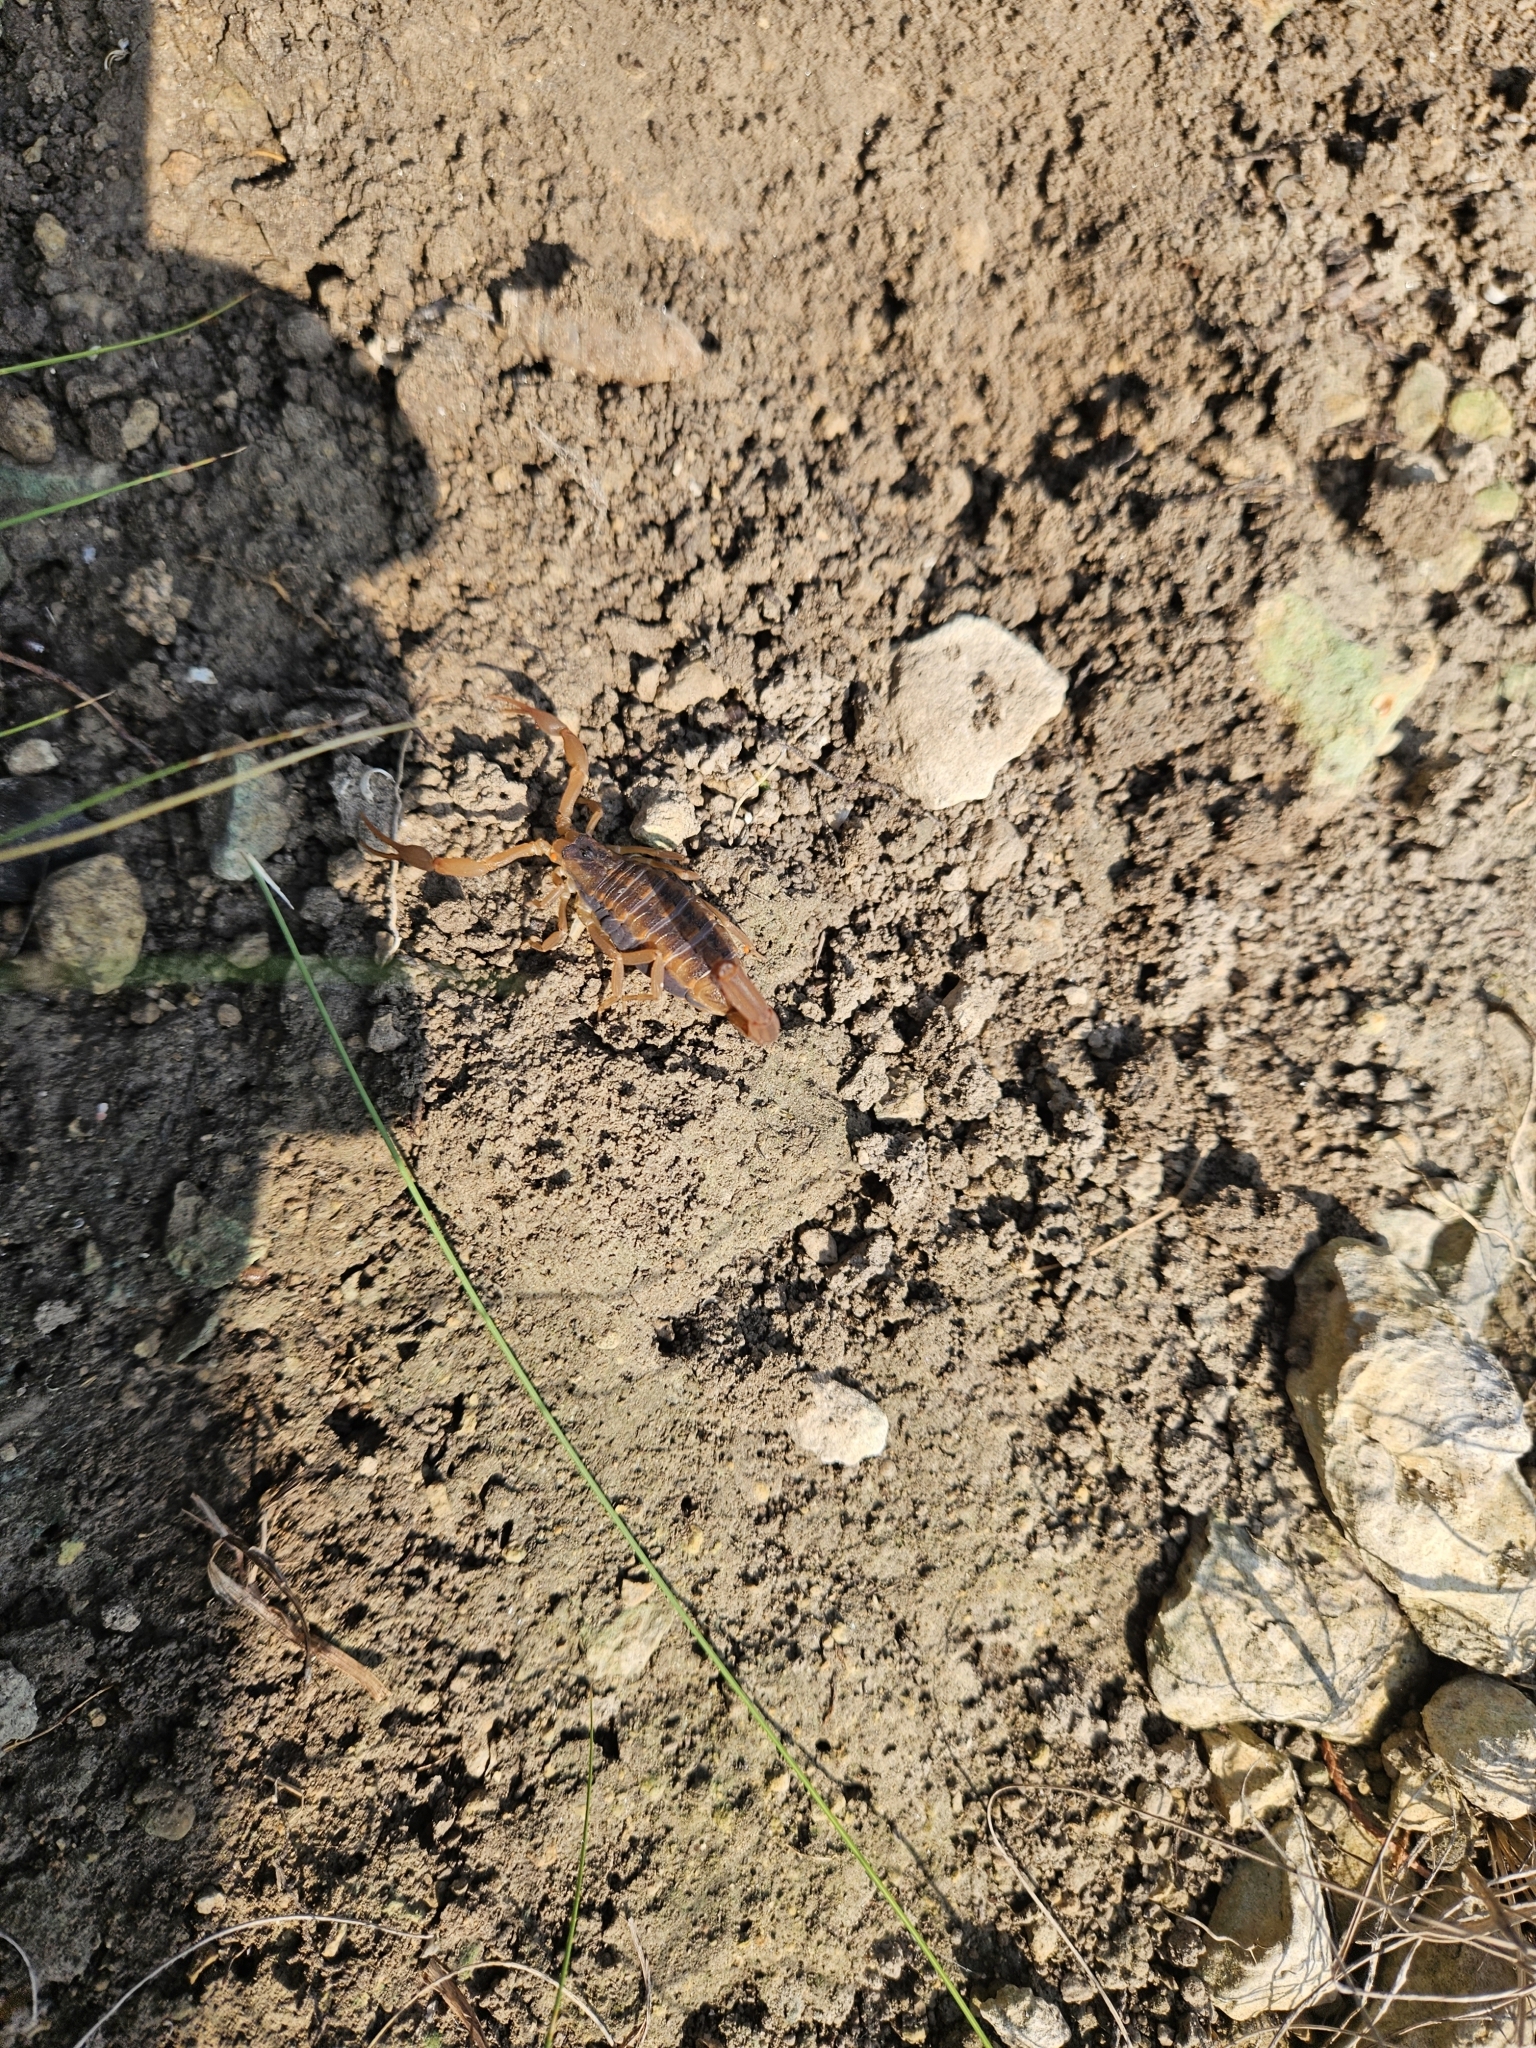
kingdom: Animalia
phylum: Arthropoda
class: Arachnida
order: Scorpiones
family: Buthidae
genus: Centruroides
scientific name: Centruroides vittatus
